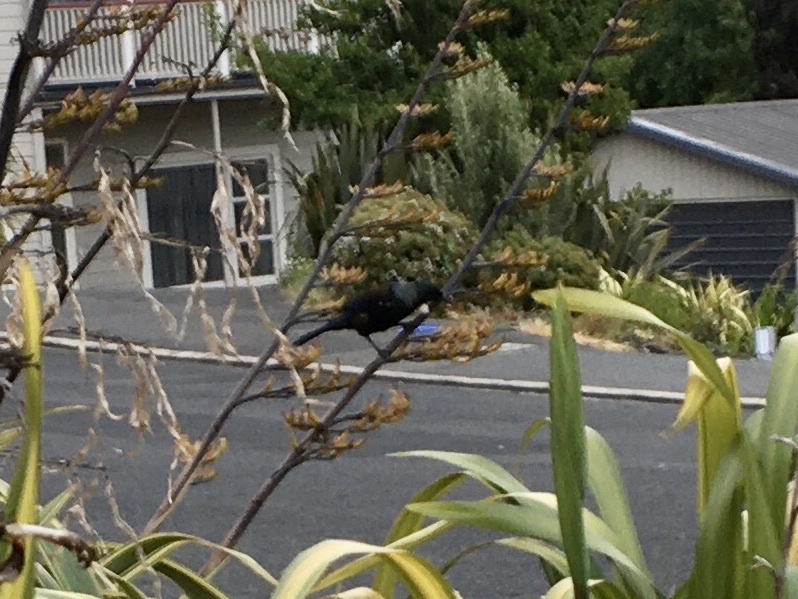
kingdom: Animalia
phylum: Chordata
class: Aves
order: Passeriformes
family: Meliphagidae
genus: Prosthemadera
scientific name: Prosthemadera novaeseelandiae
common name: Tui
